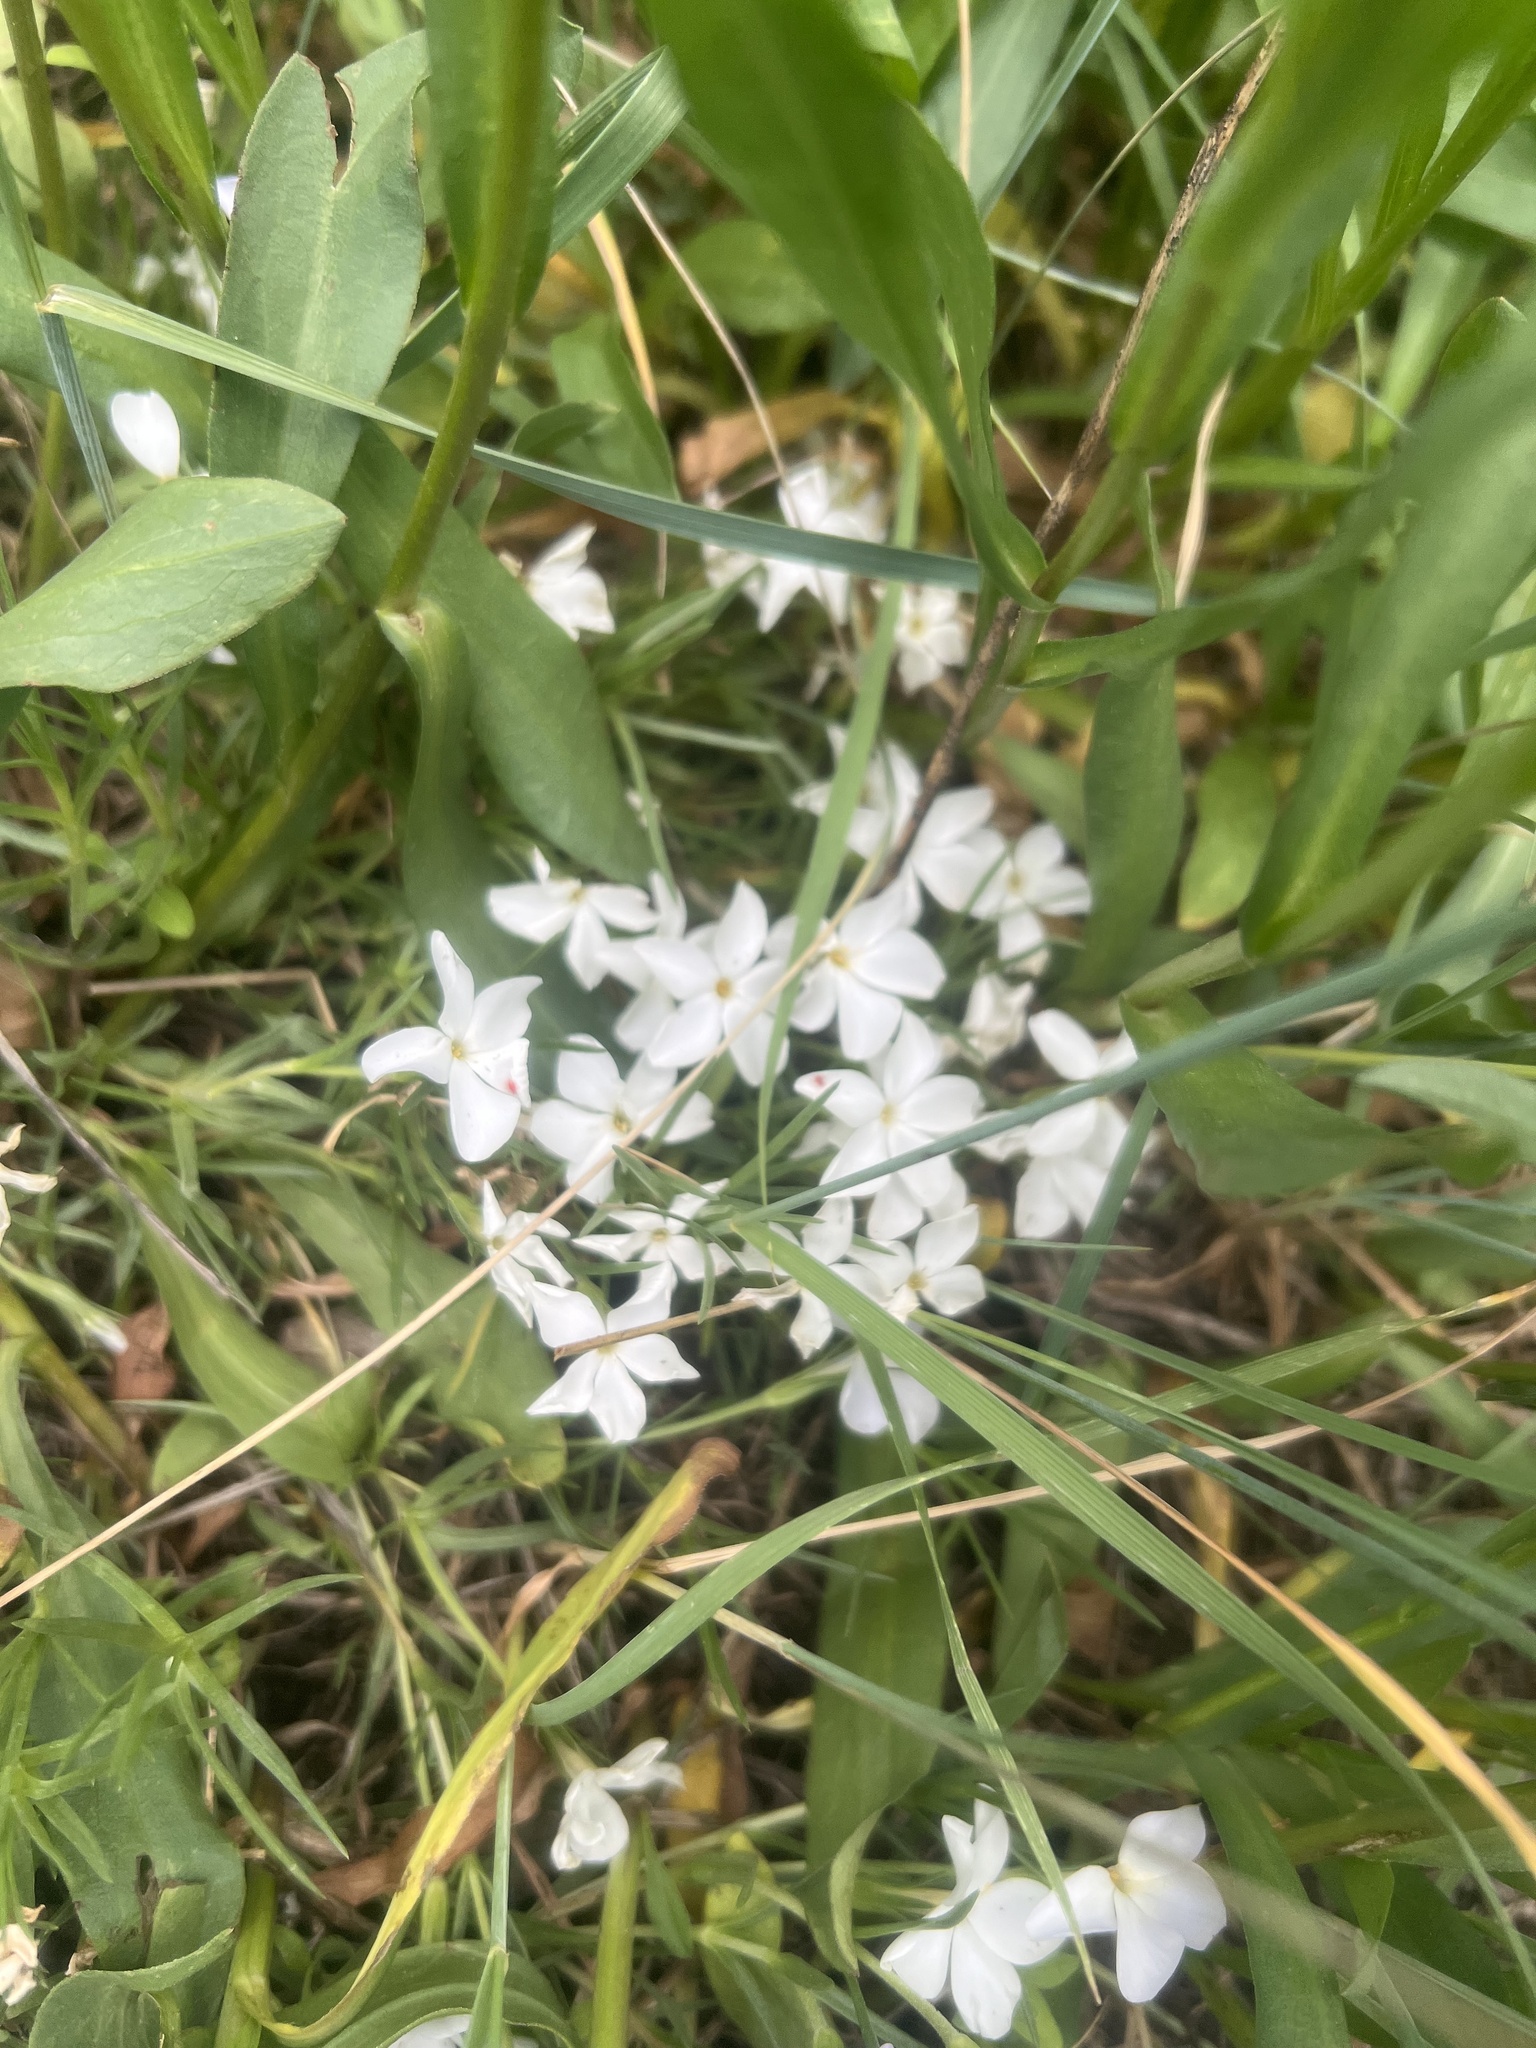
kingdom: Plantae
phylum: Tracheophyta
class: Magnoliopsida
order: Ericales
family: Polemoniaceae
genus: Phlox
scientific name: Phlox multiflora
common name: Rocky mountain phlox
